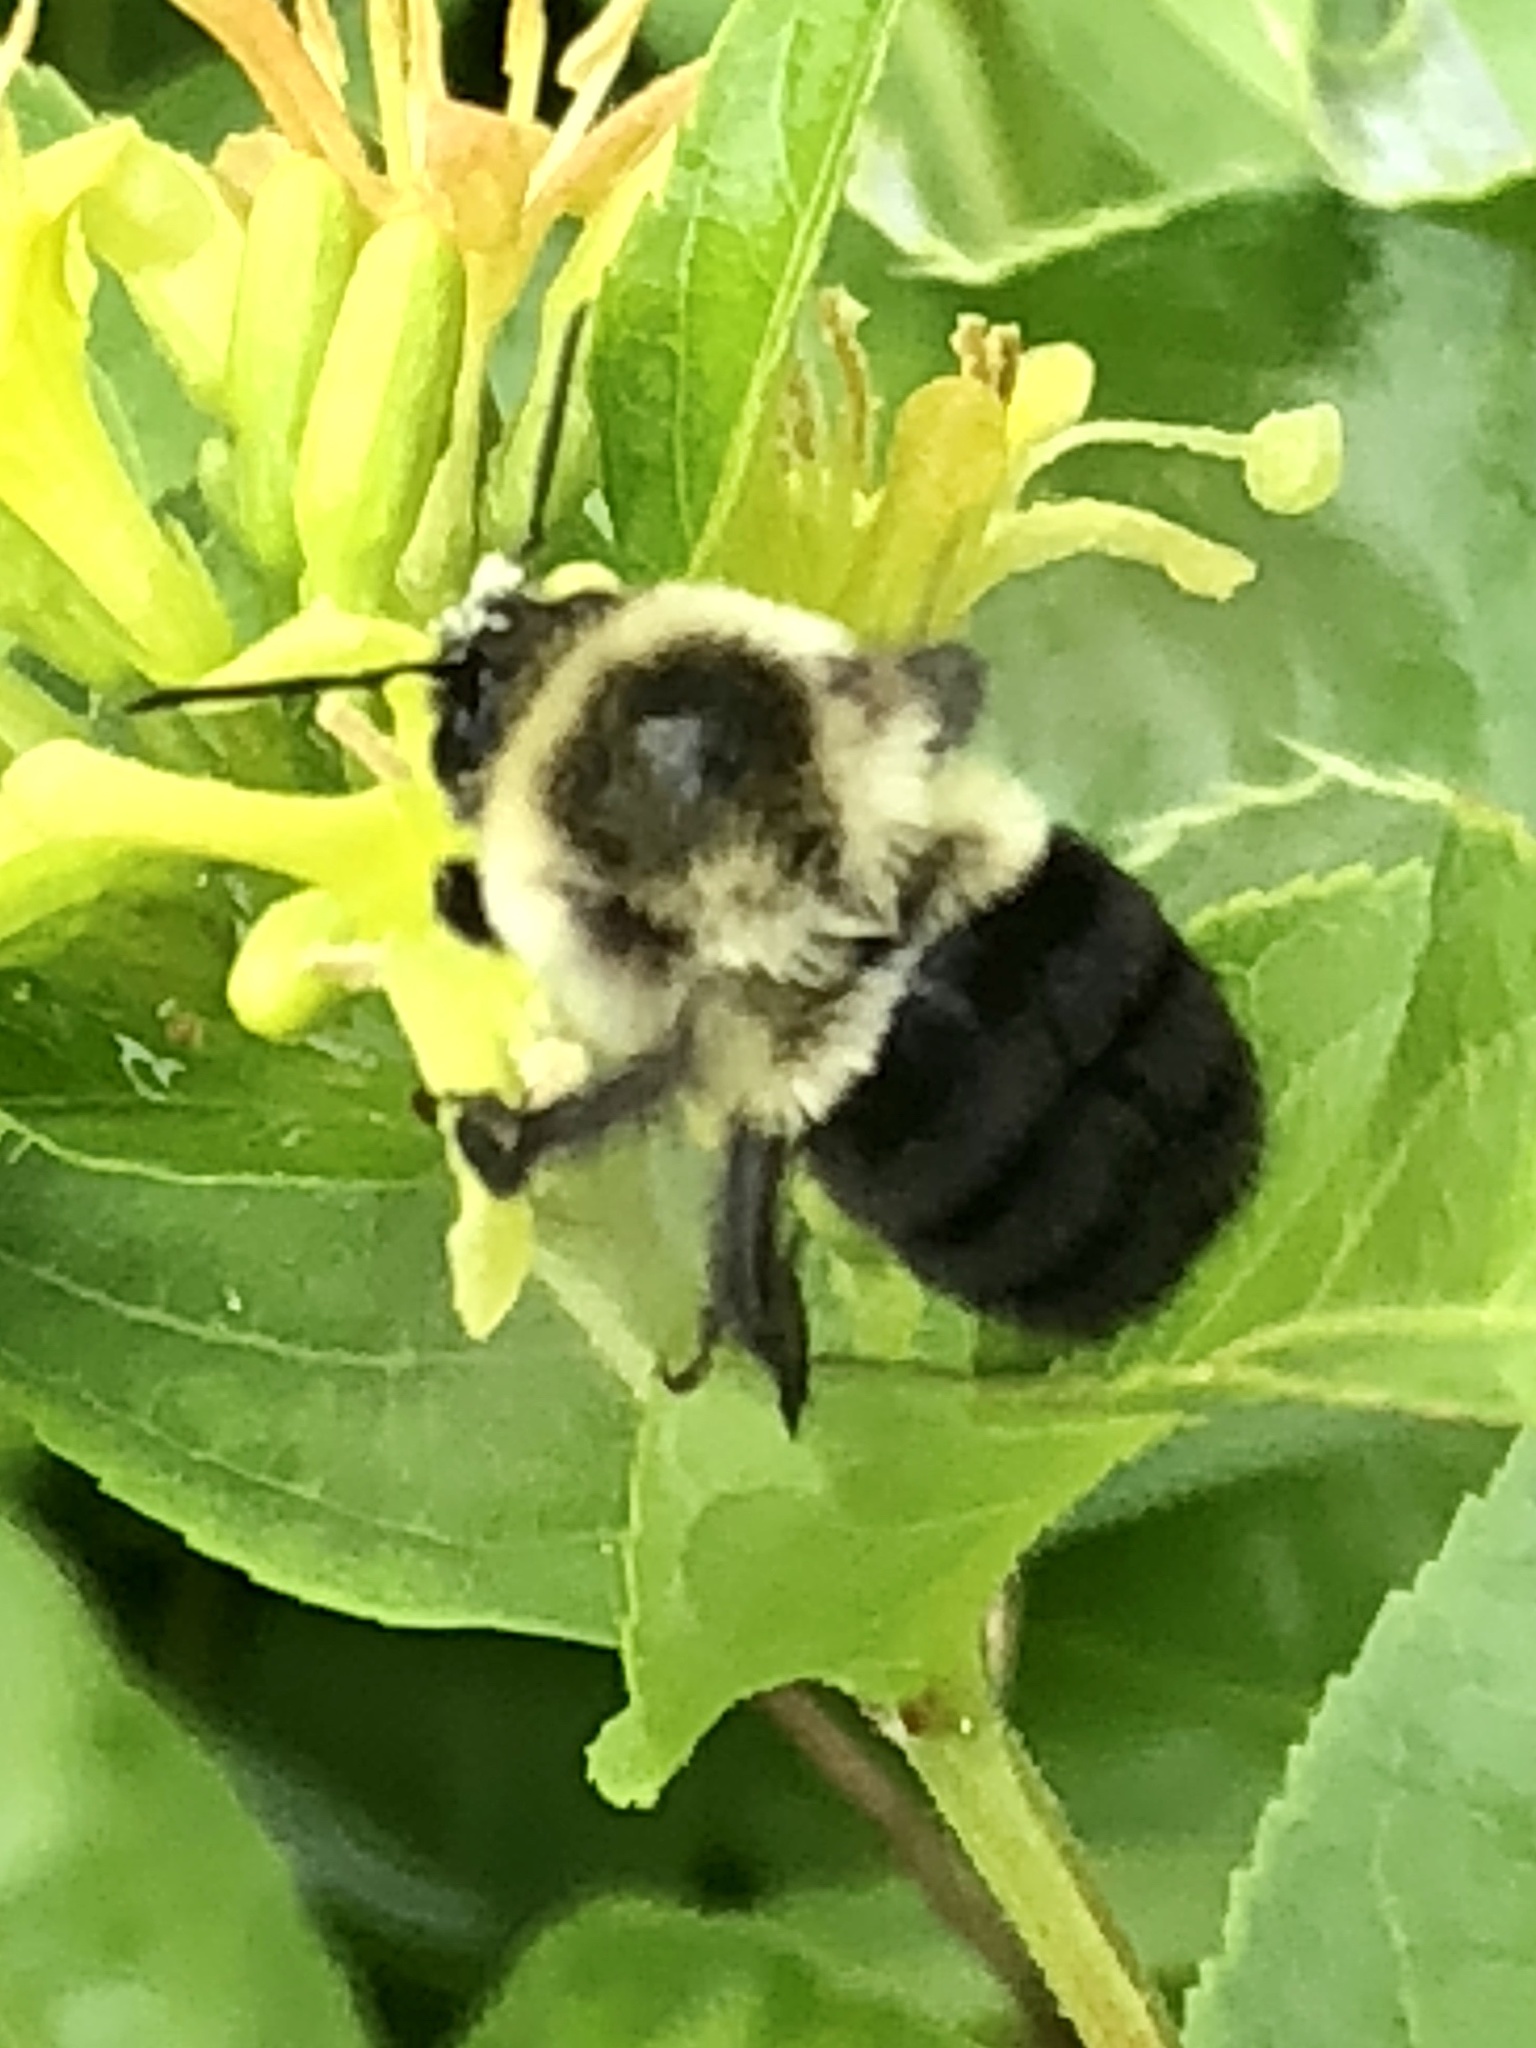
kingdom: Animalia
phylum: Arthropoda
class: Insecta
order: Hymenoptera
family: Apidae
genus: Bombus
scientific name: Bombus impatiens
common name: Common eastern bumble bee
